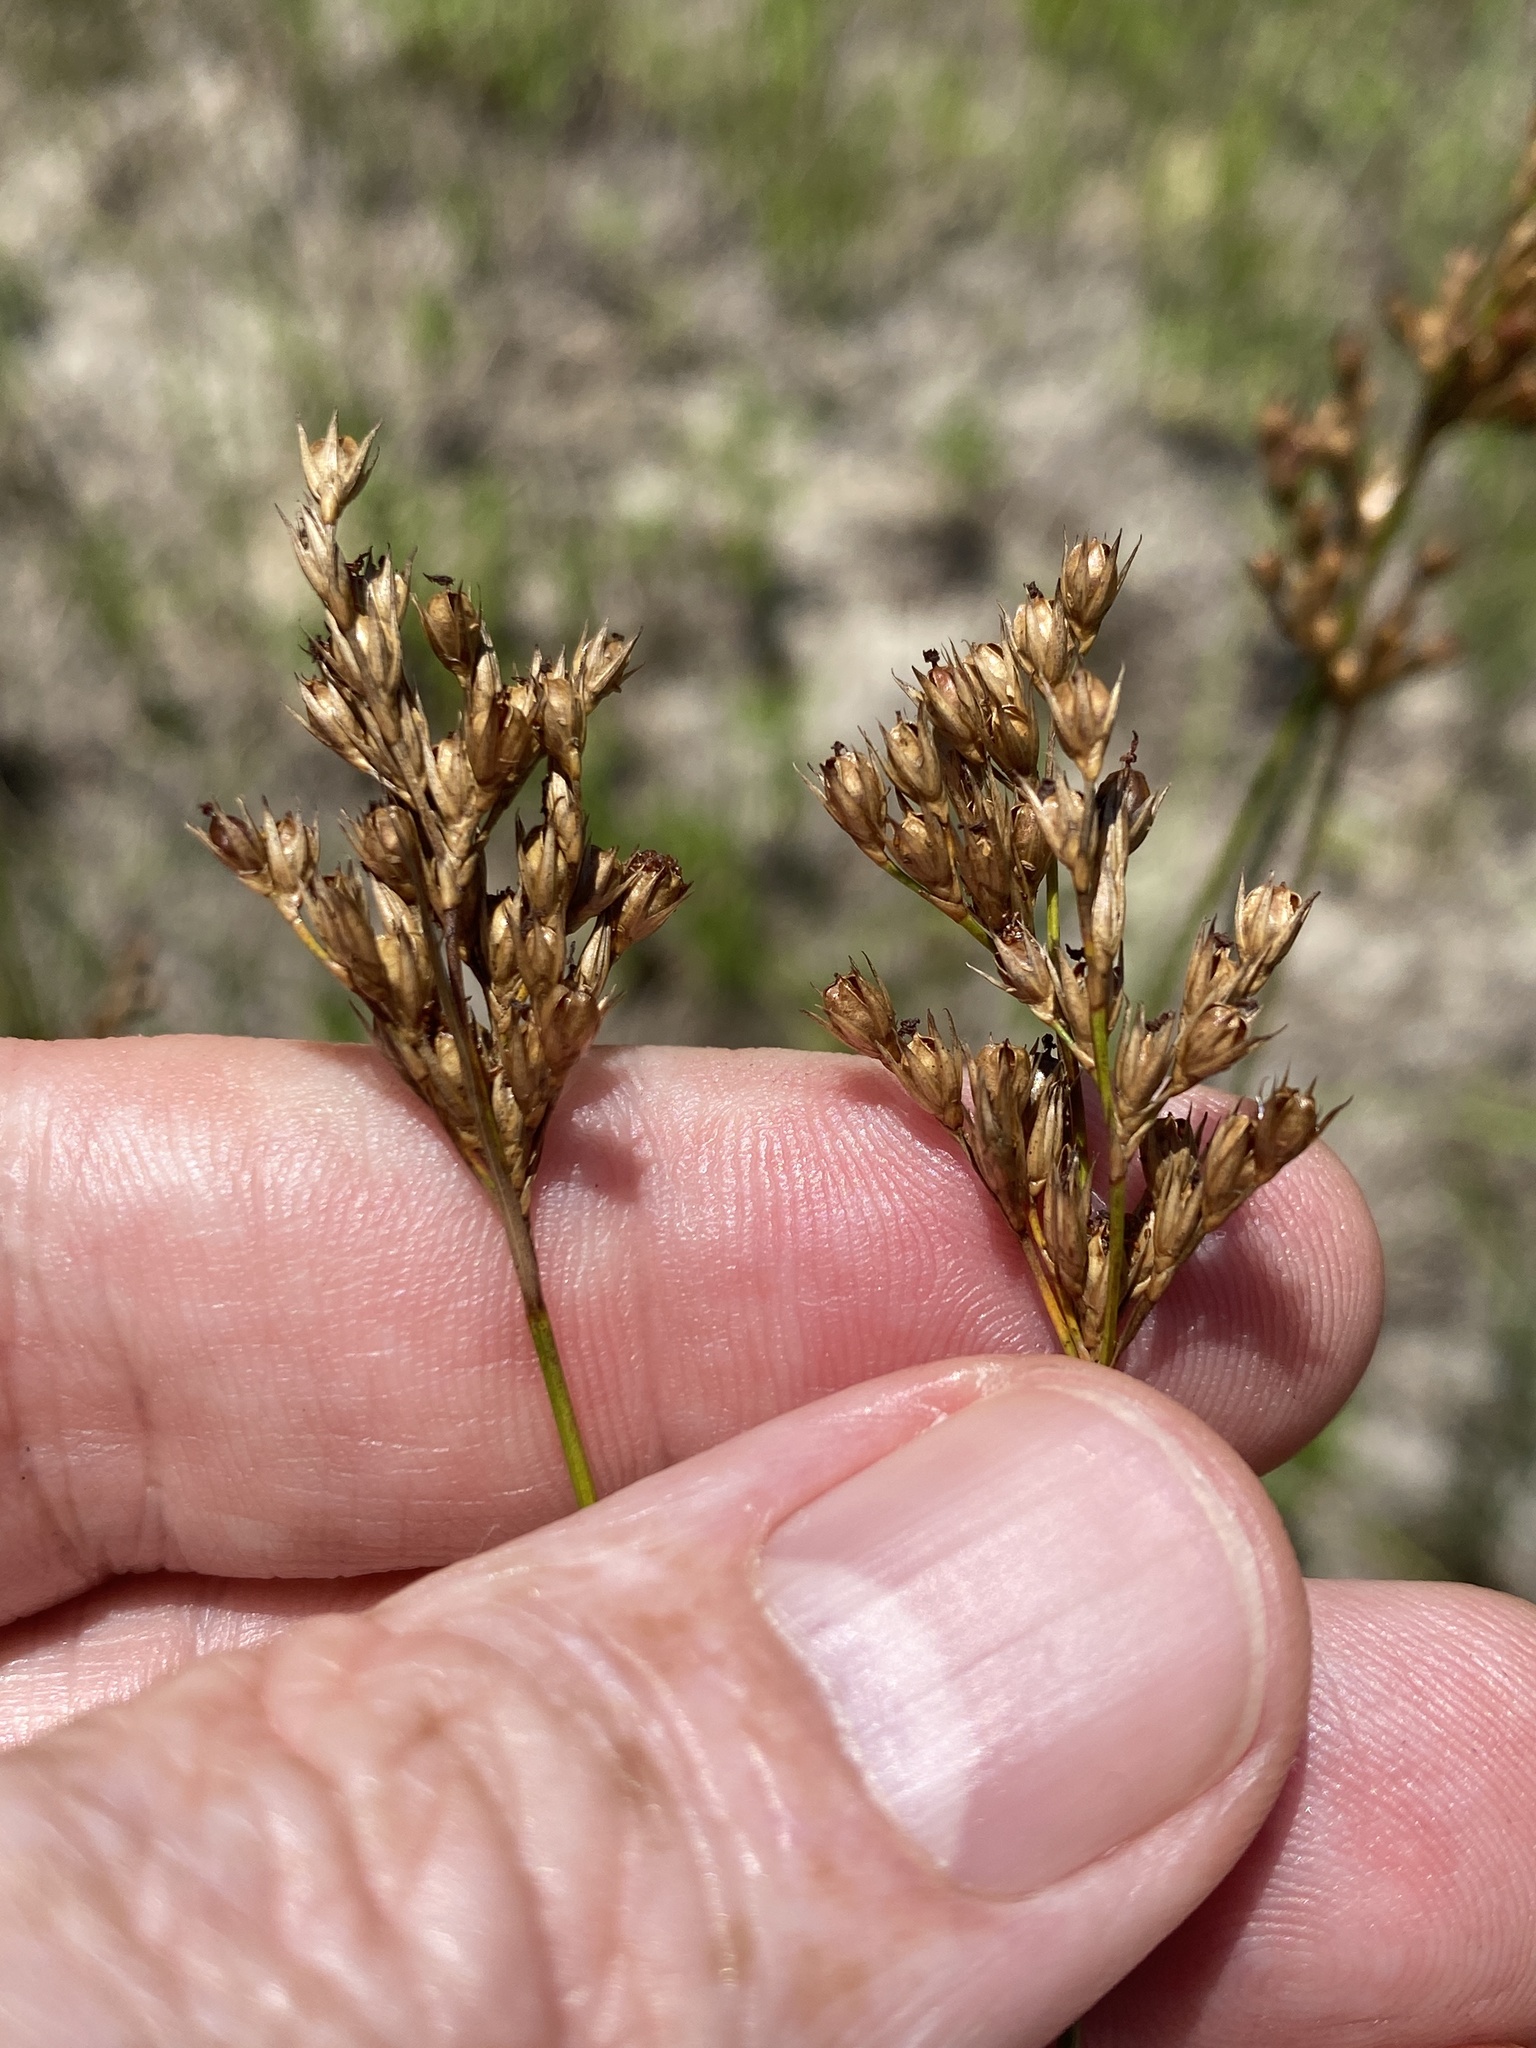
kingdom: Plantae
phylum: Tracheophyta
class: Liliopsida
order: Poales
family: Juncaceae
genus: Juncus
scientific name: Juncus dichotomus
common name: Forked rush
